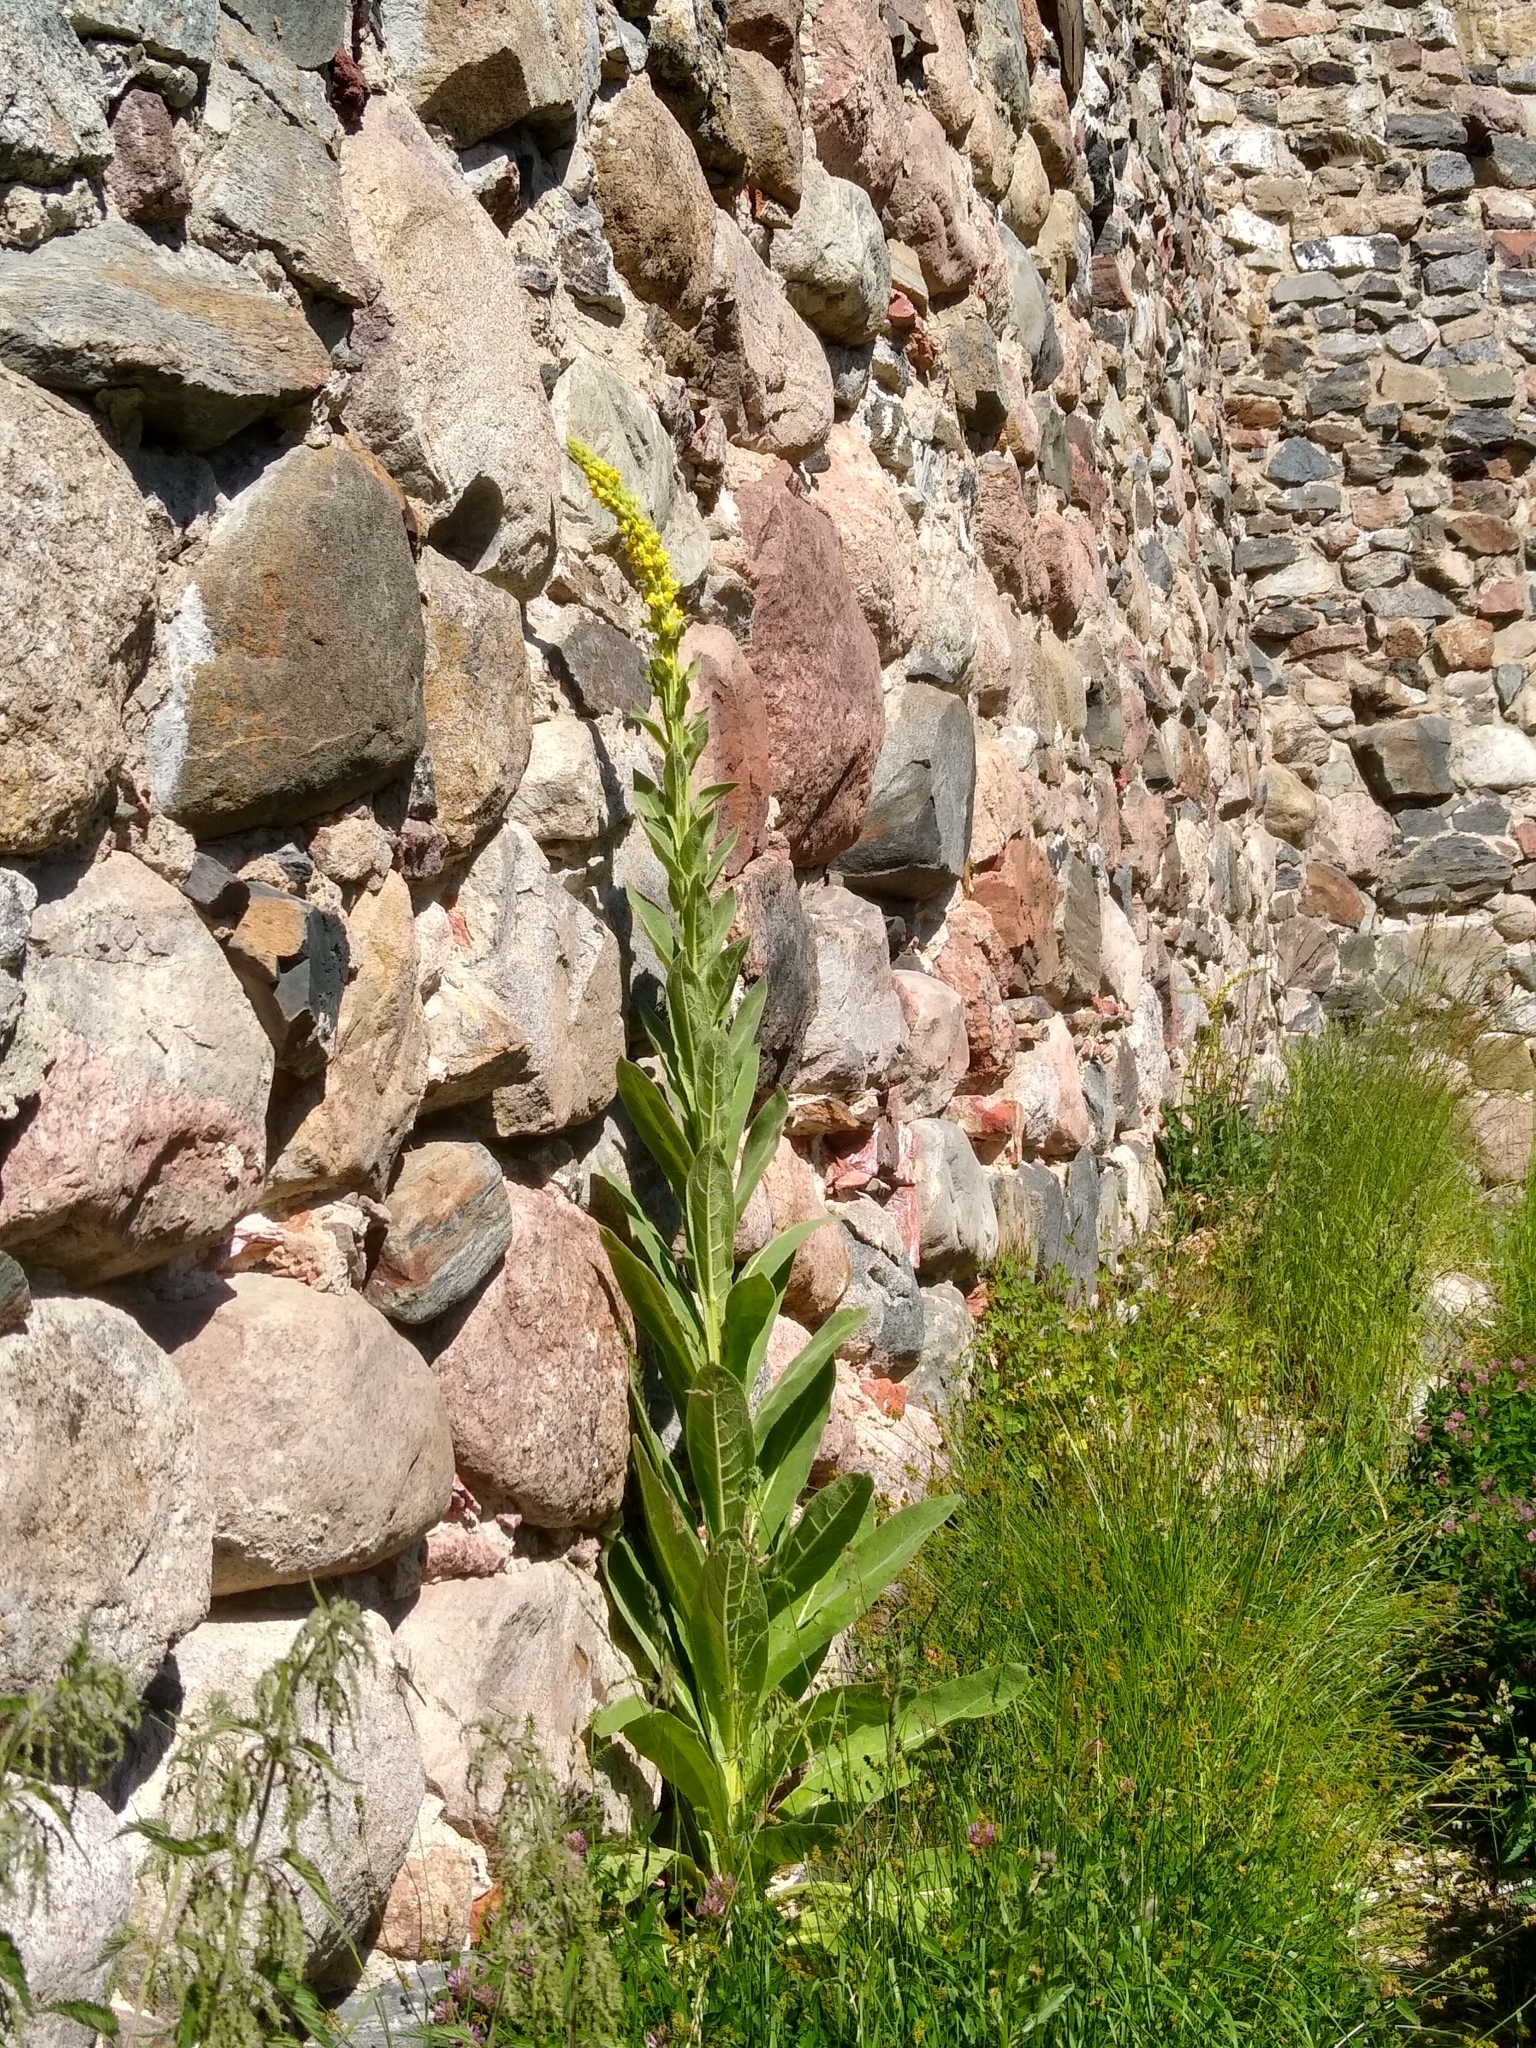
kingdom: Plantae
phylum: Tracheophyta
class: Magnoliopsida
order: Lamiales
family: Scrophulariaceae
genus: Verbascum
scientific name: Verbascum thapsus
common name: Common mullein
